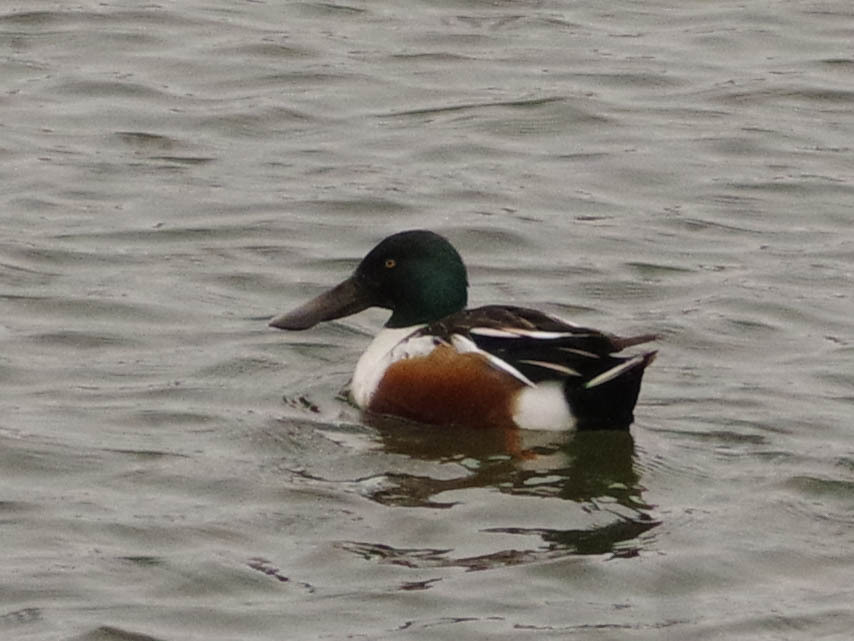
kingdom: Animalia
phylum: Chordata
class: Aves
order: Anseriformes
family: Anatidae
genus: Spatula
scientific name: Spatula clypeata
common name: Northern shoveler
